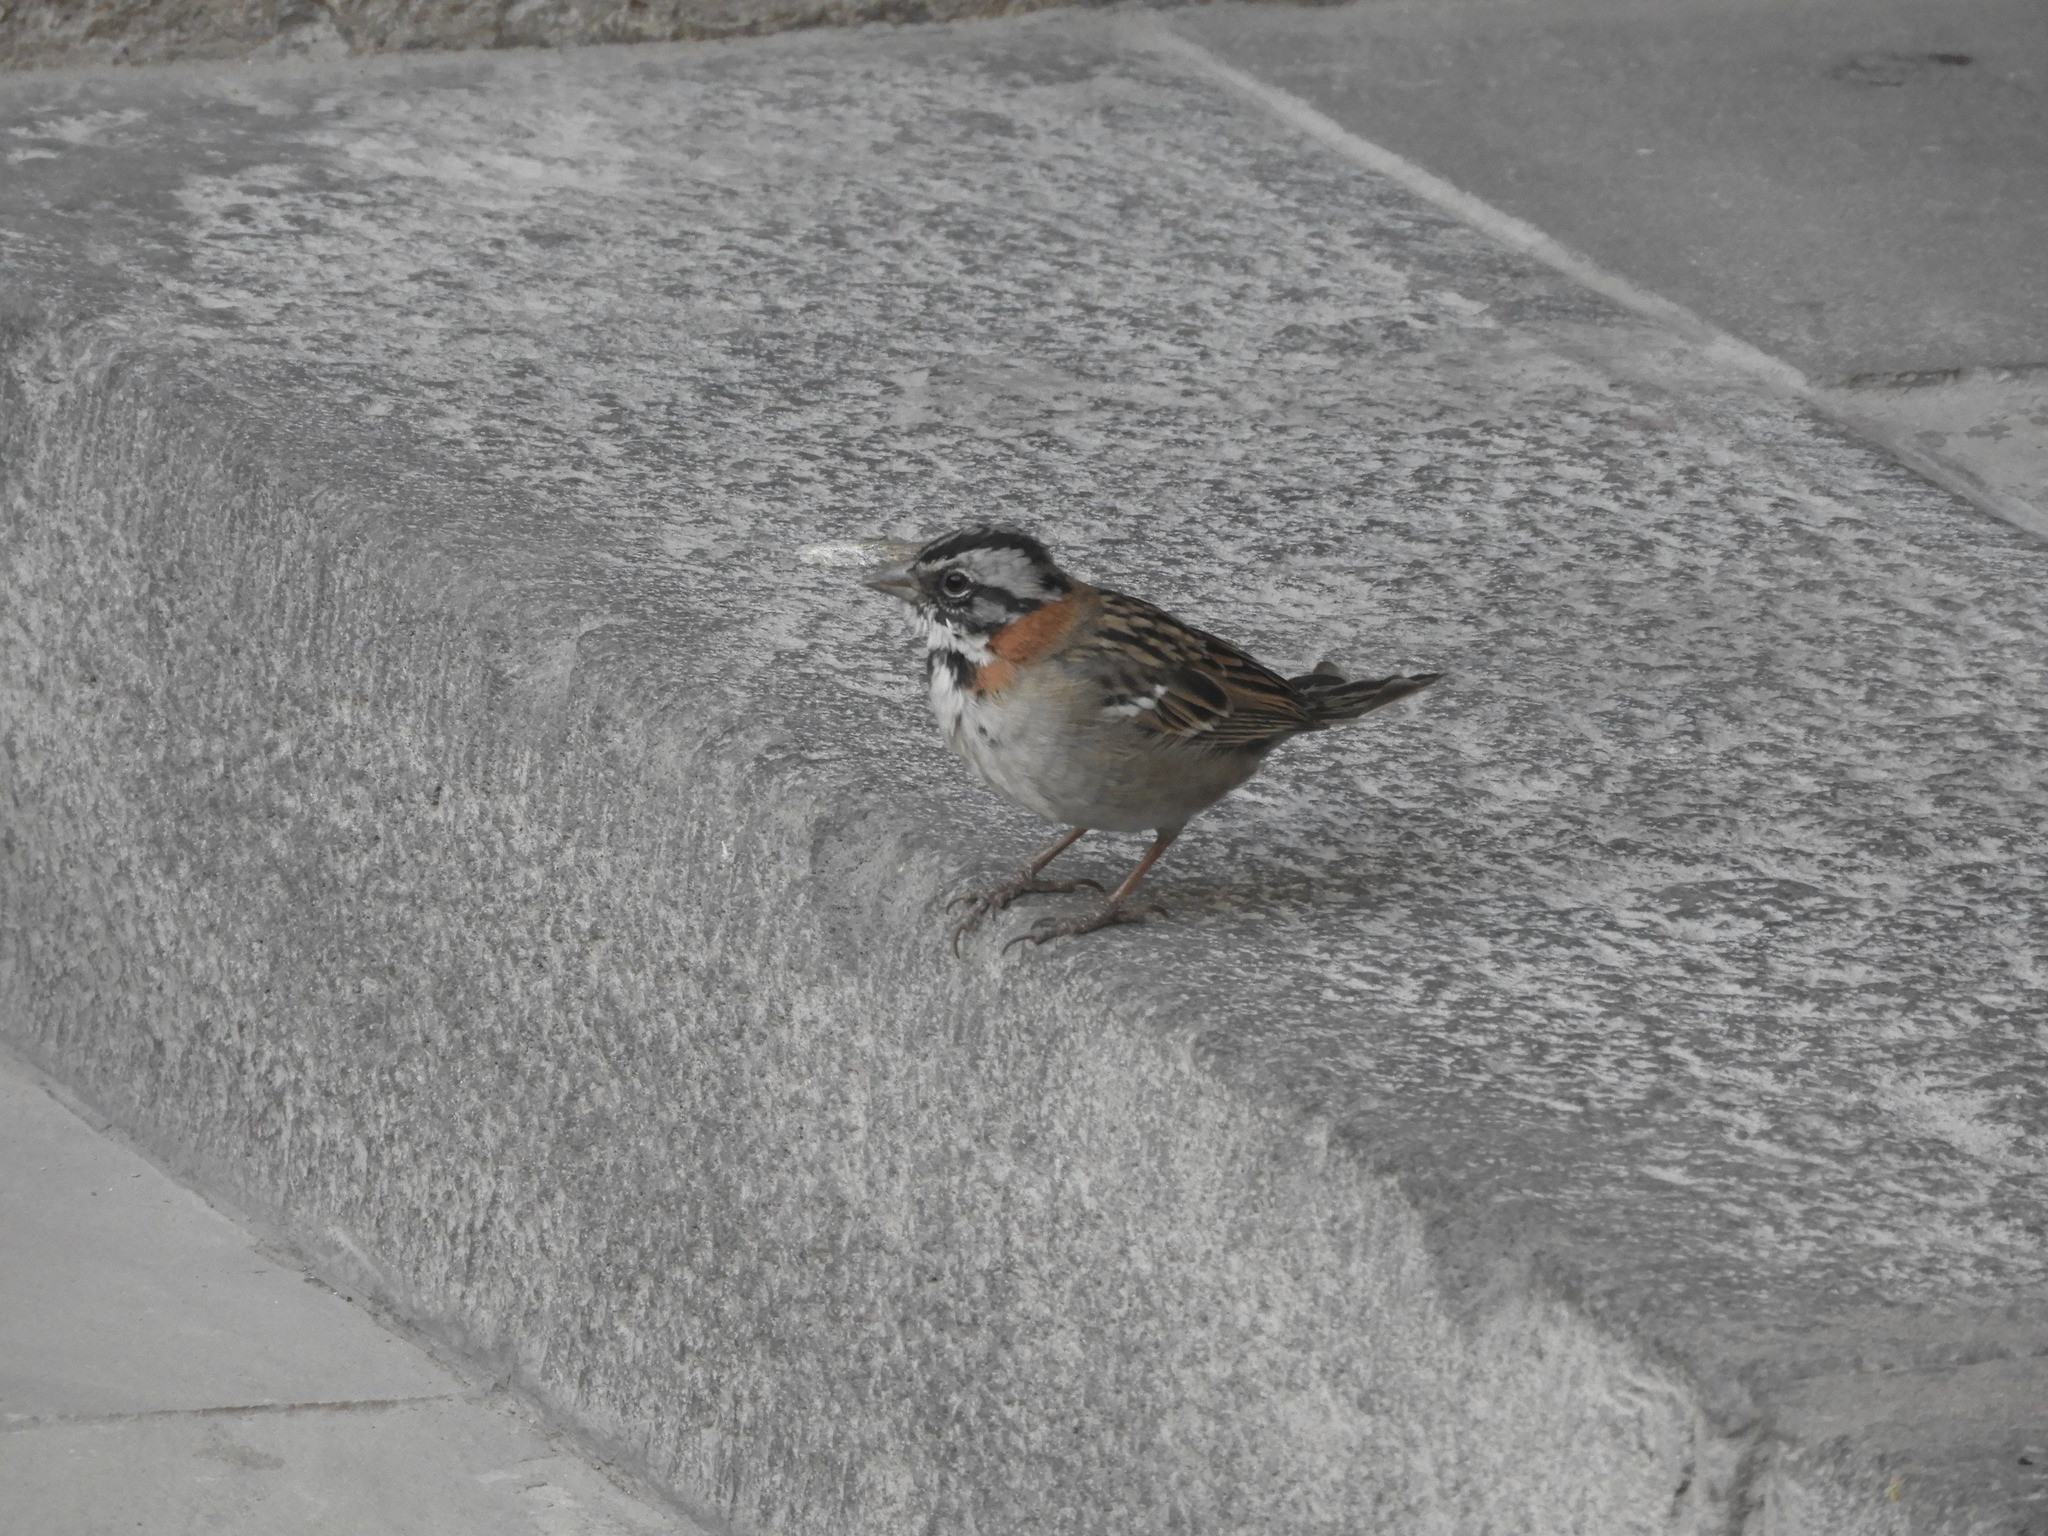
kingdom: Animalia
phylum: Chordata
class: Aves
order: Passeriformes
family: Passerellidae
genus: Zonotrichia
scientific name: Zonotrichia capensis
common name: Rufous-collared sparrow
